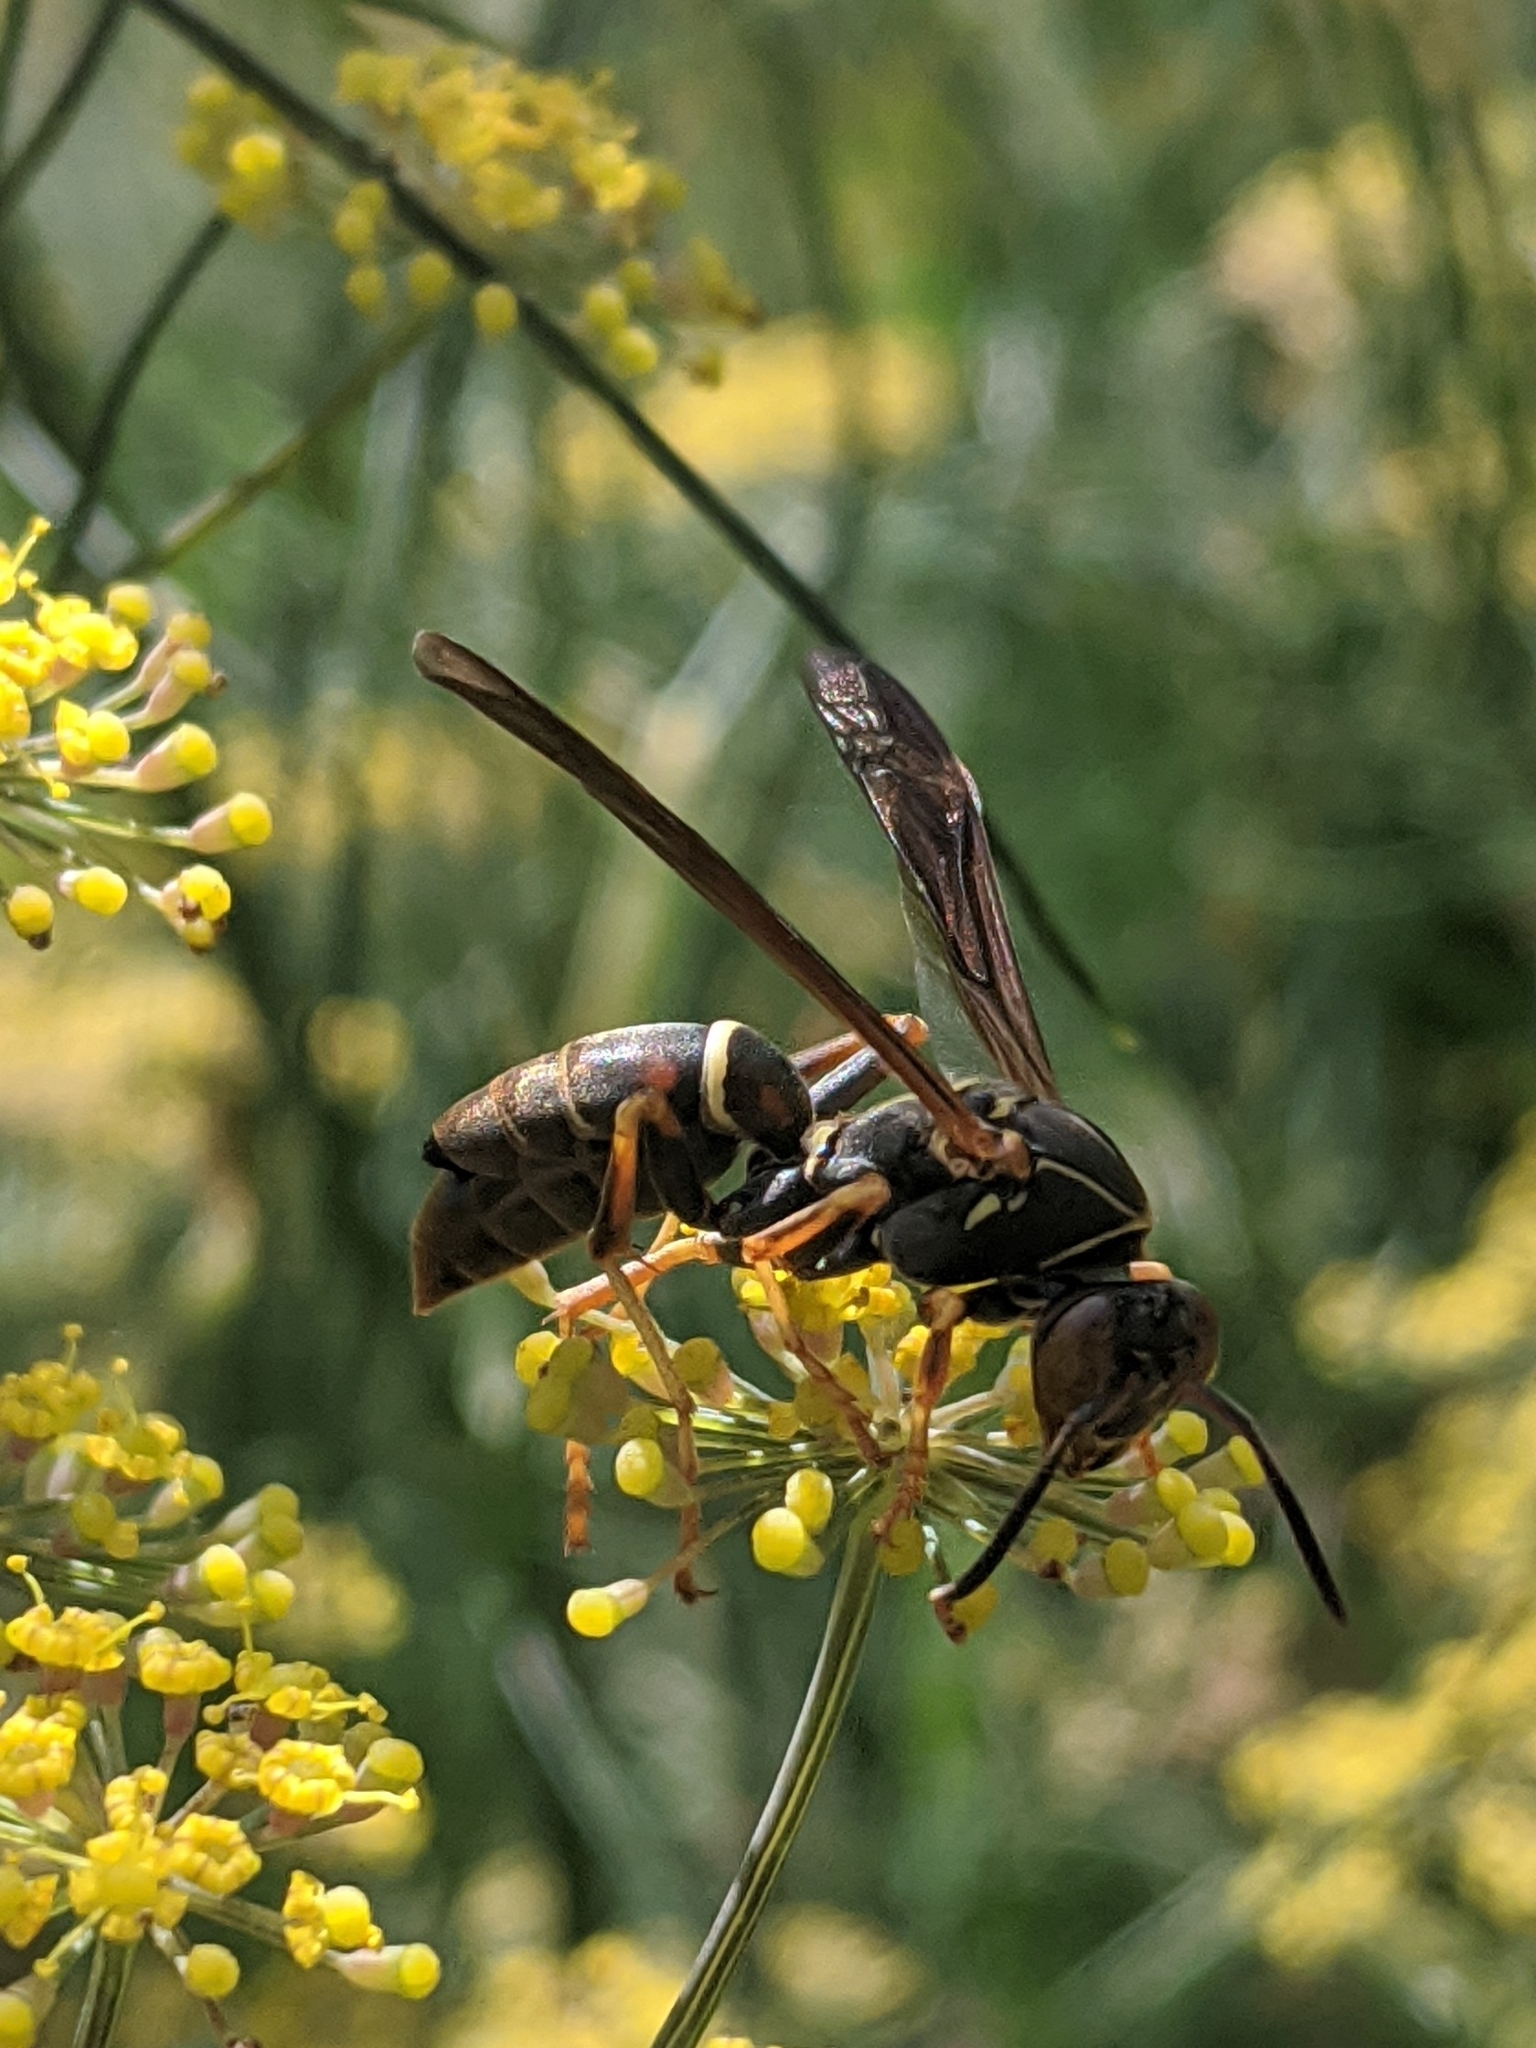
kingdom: Animalia
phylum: Arthropoda
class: Insecta
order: Strepsiptera
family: Xenidae
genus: Xenos
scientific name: Xenos pecki
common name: Twisted wing parasite
